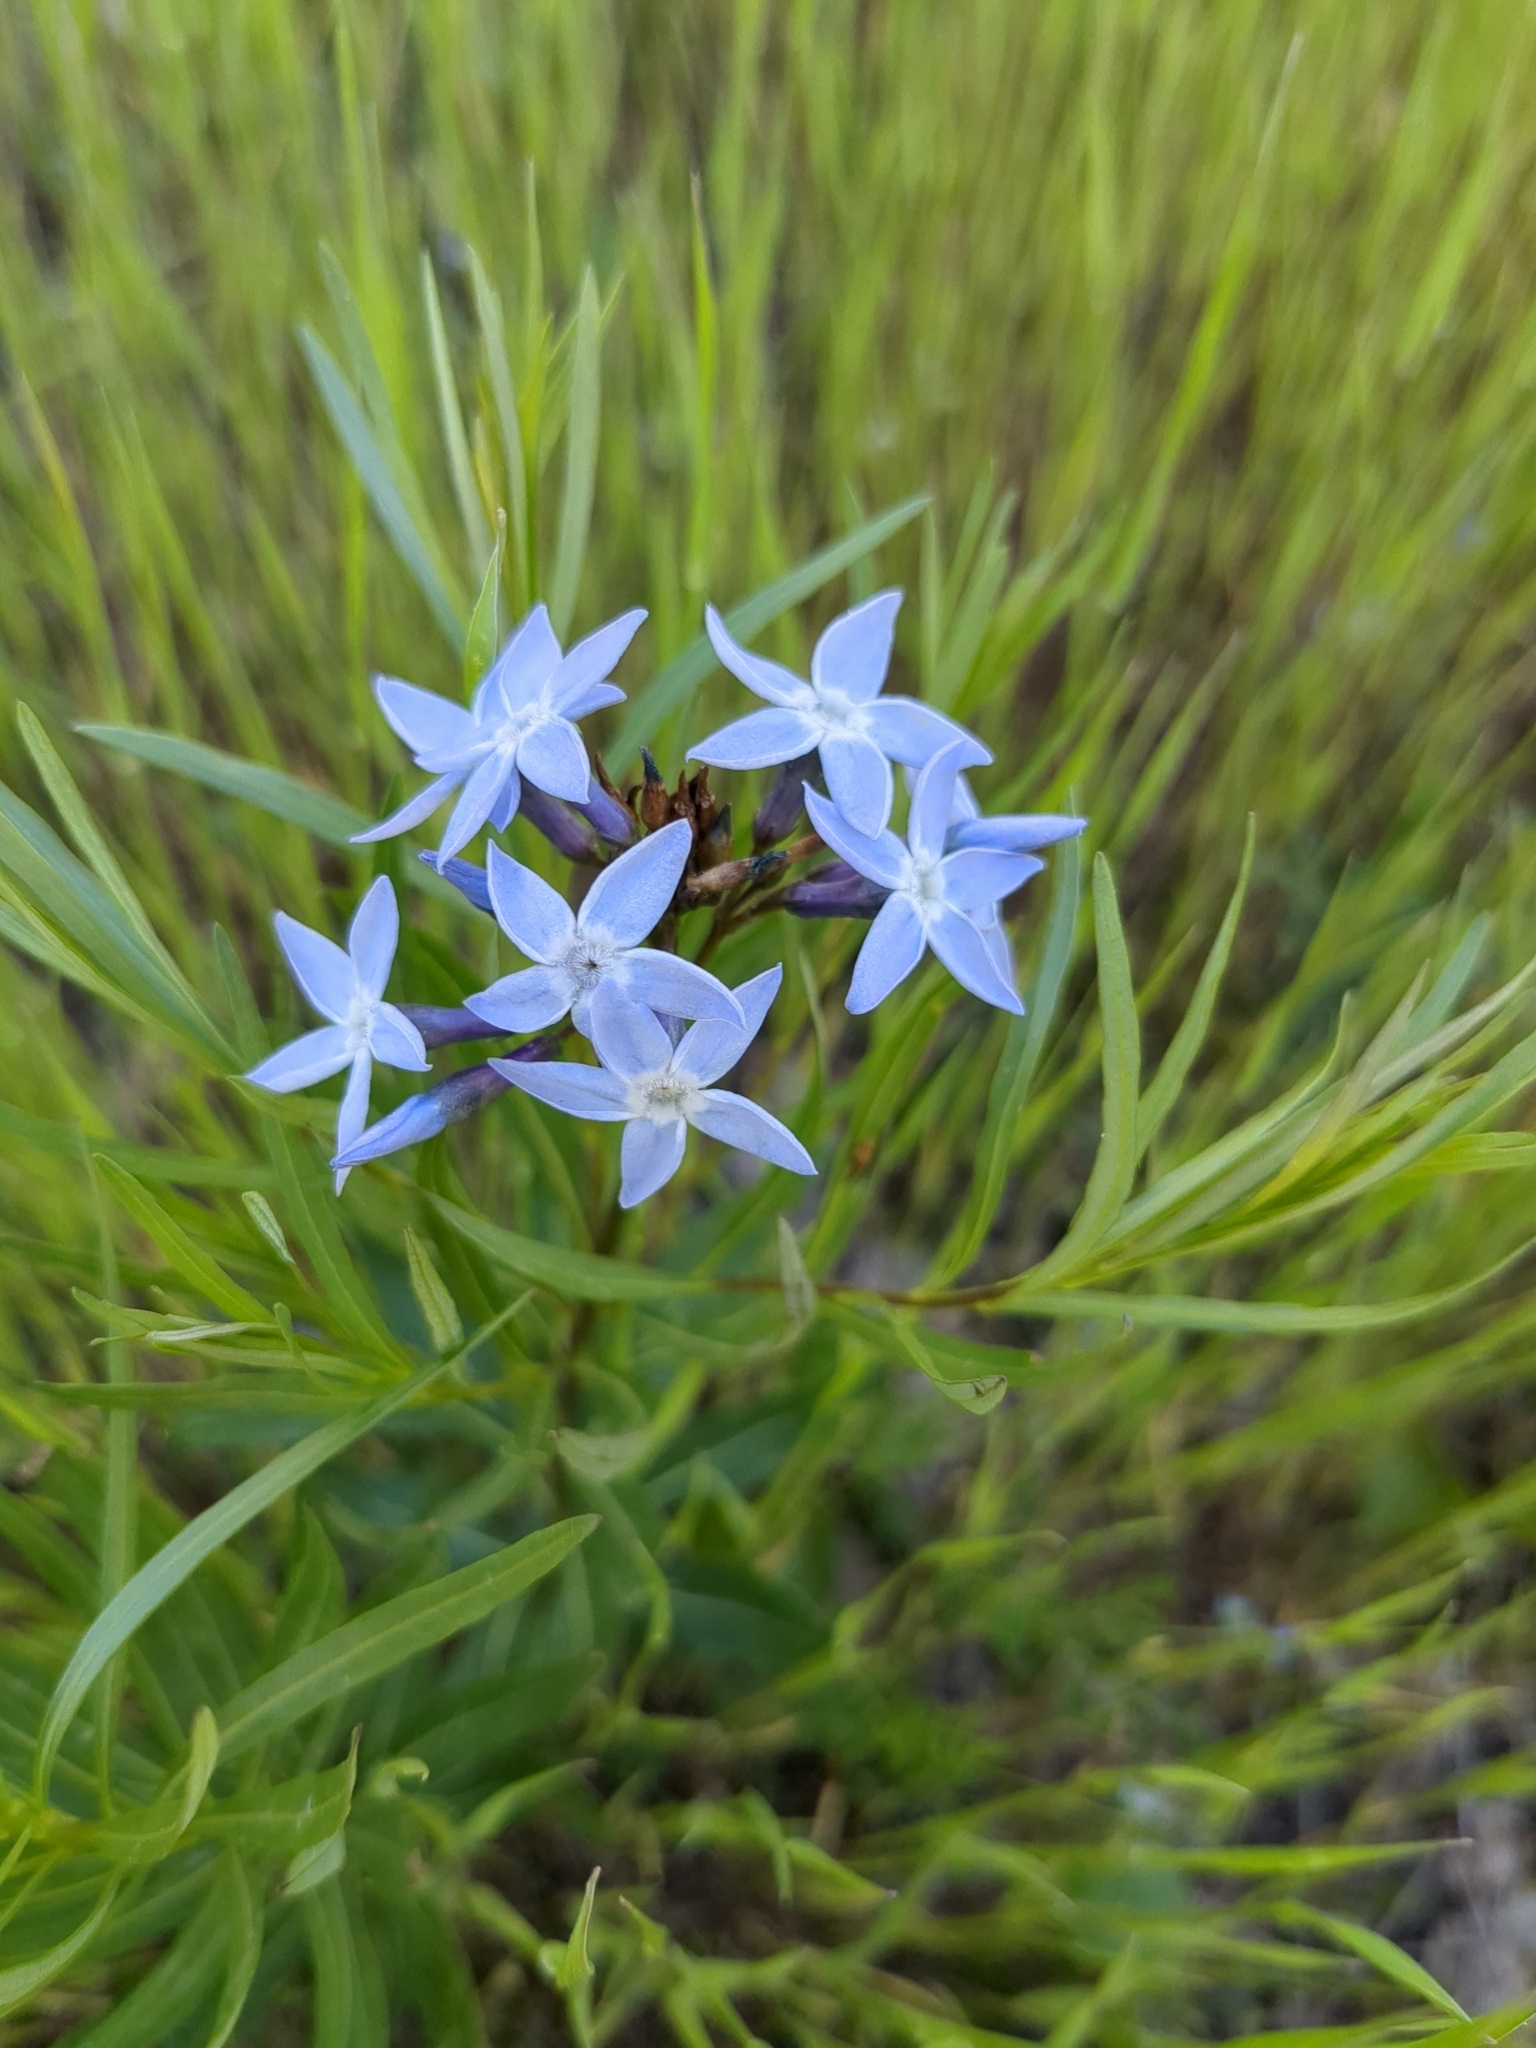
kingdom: Plantae
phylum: Tracheophyta
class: Magnoliopsida
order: Gentianales
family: Apocynaceae
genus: Amsonia
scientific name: Amsonia ciliata
